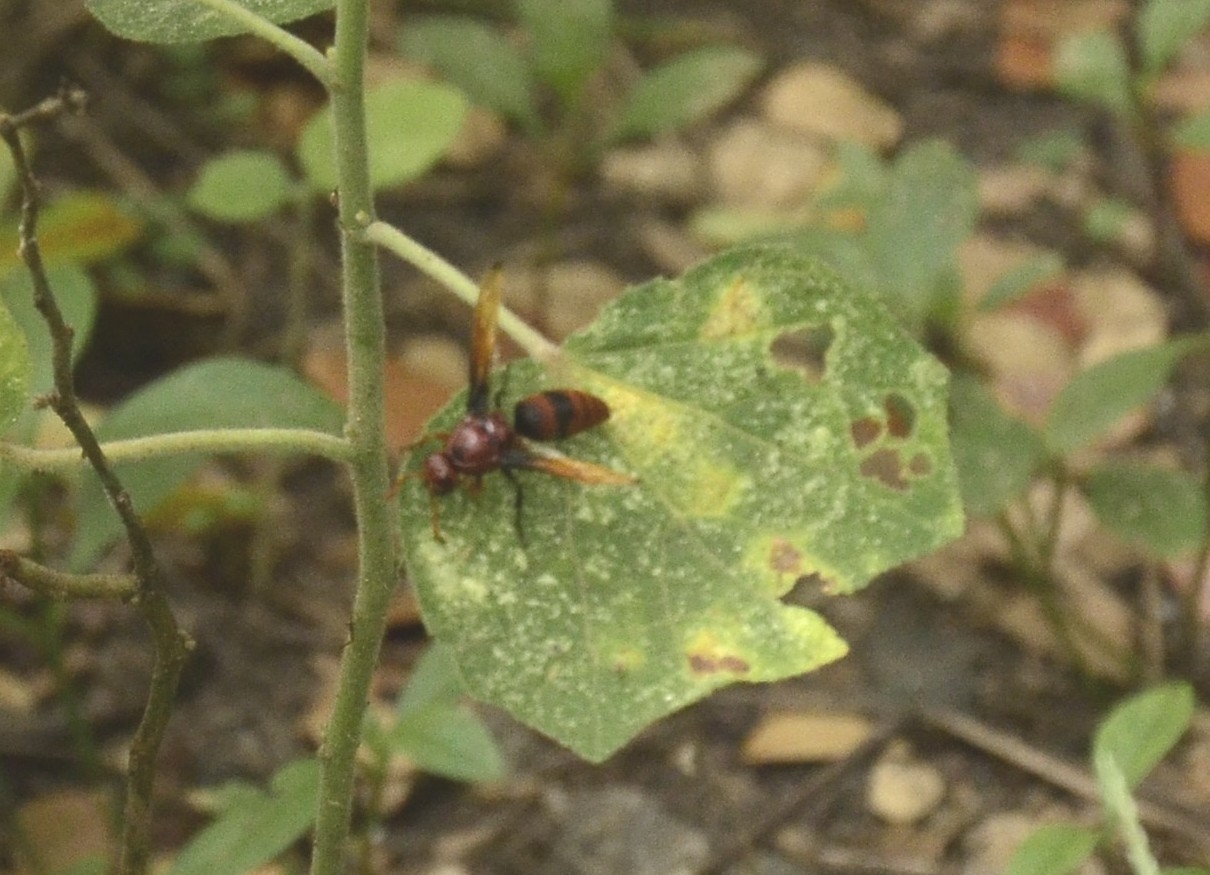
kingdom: Animalia
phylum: Arthropoda
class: Insecta
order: Hymenoptera
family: Eumenidae
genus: Rhynchium
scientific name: Rhynchium brunneum
